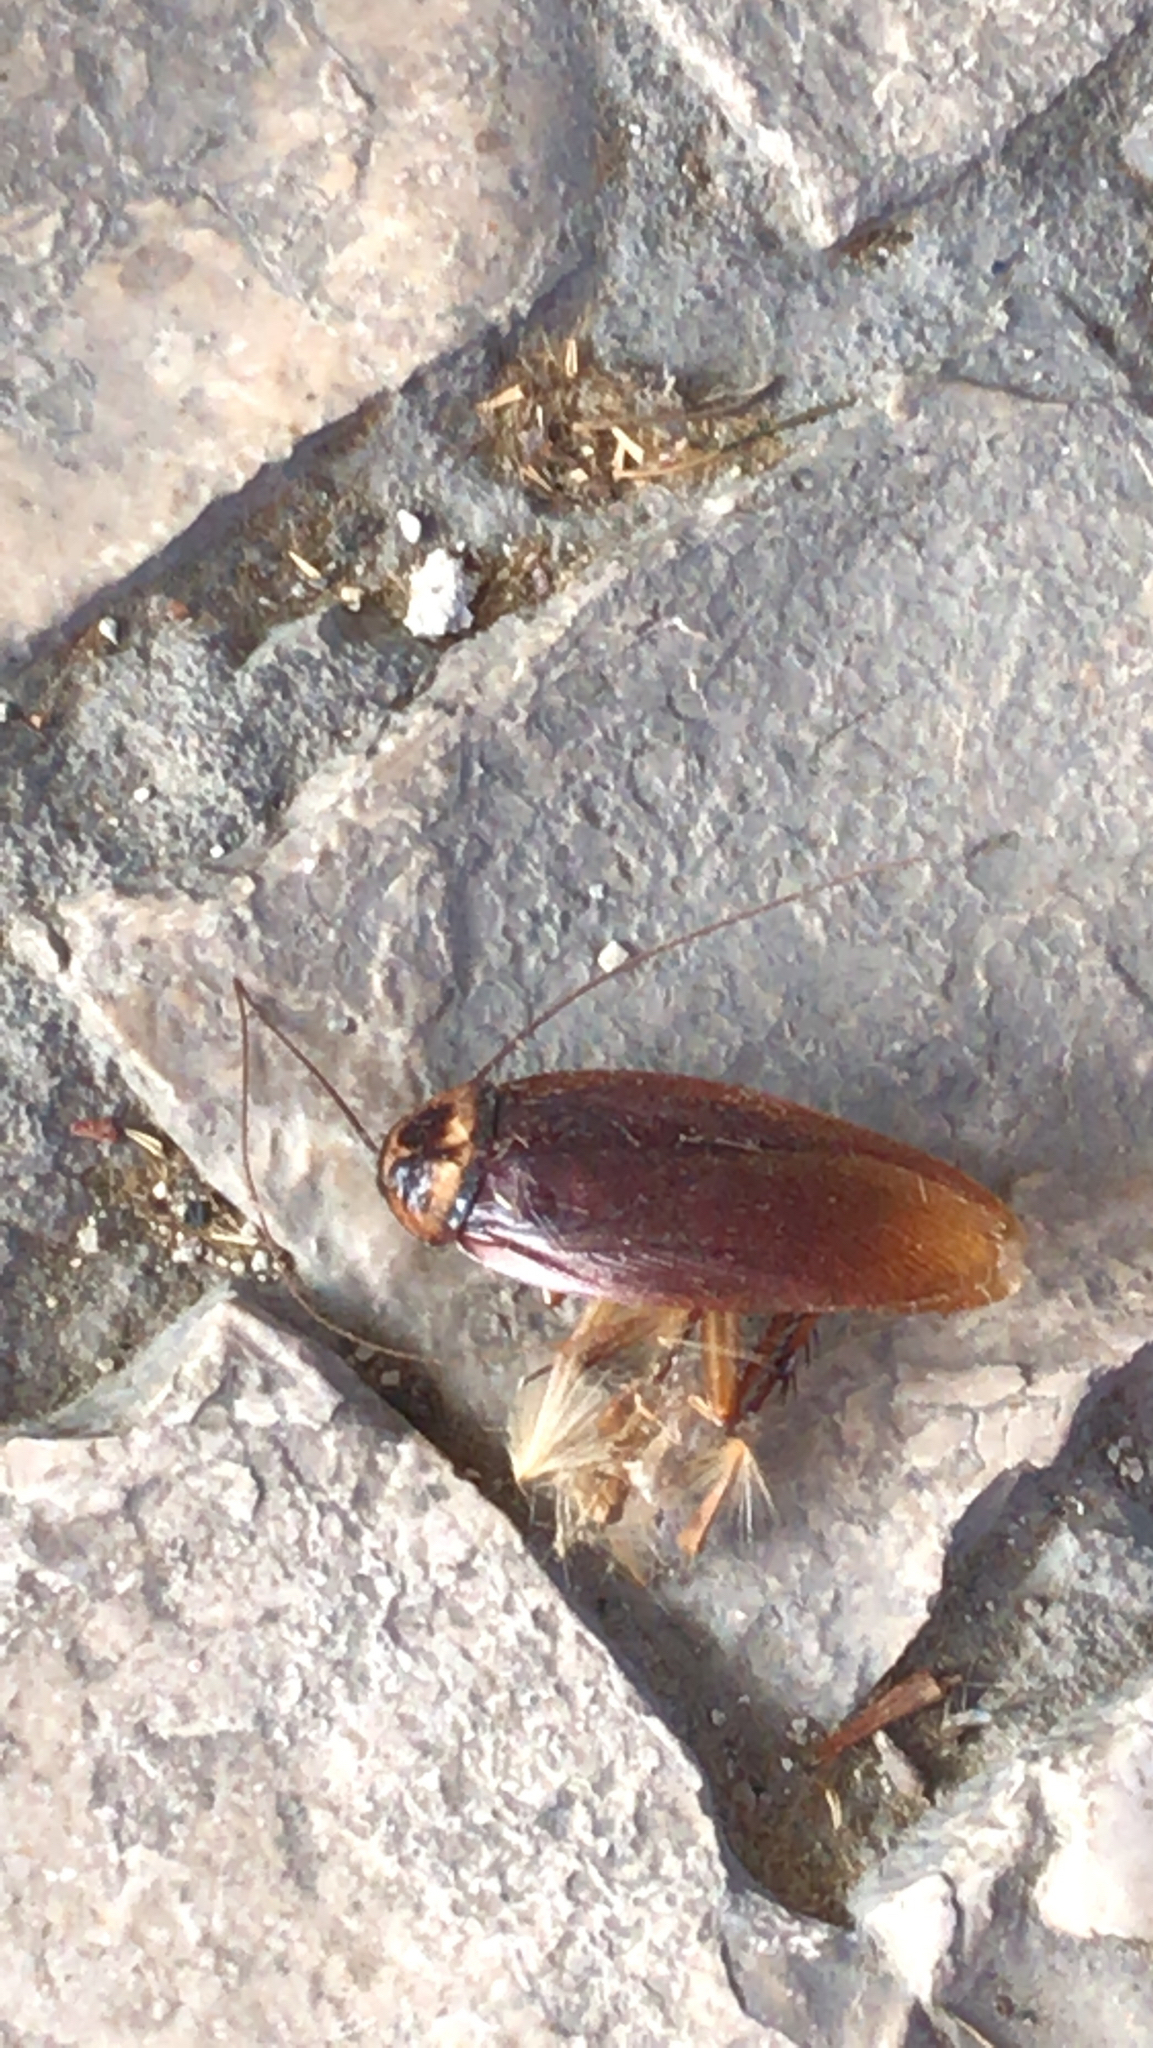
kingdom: Animalia
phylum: Arthropoda
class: Insecta
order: Blattodea
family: Blattidae
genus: Periplaneta
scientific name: Periplaneta americana
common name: American cockroach
